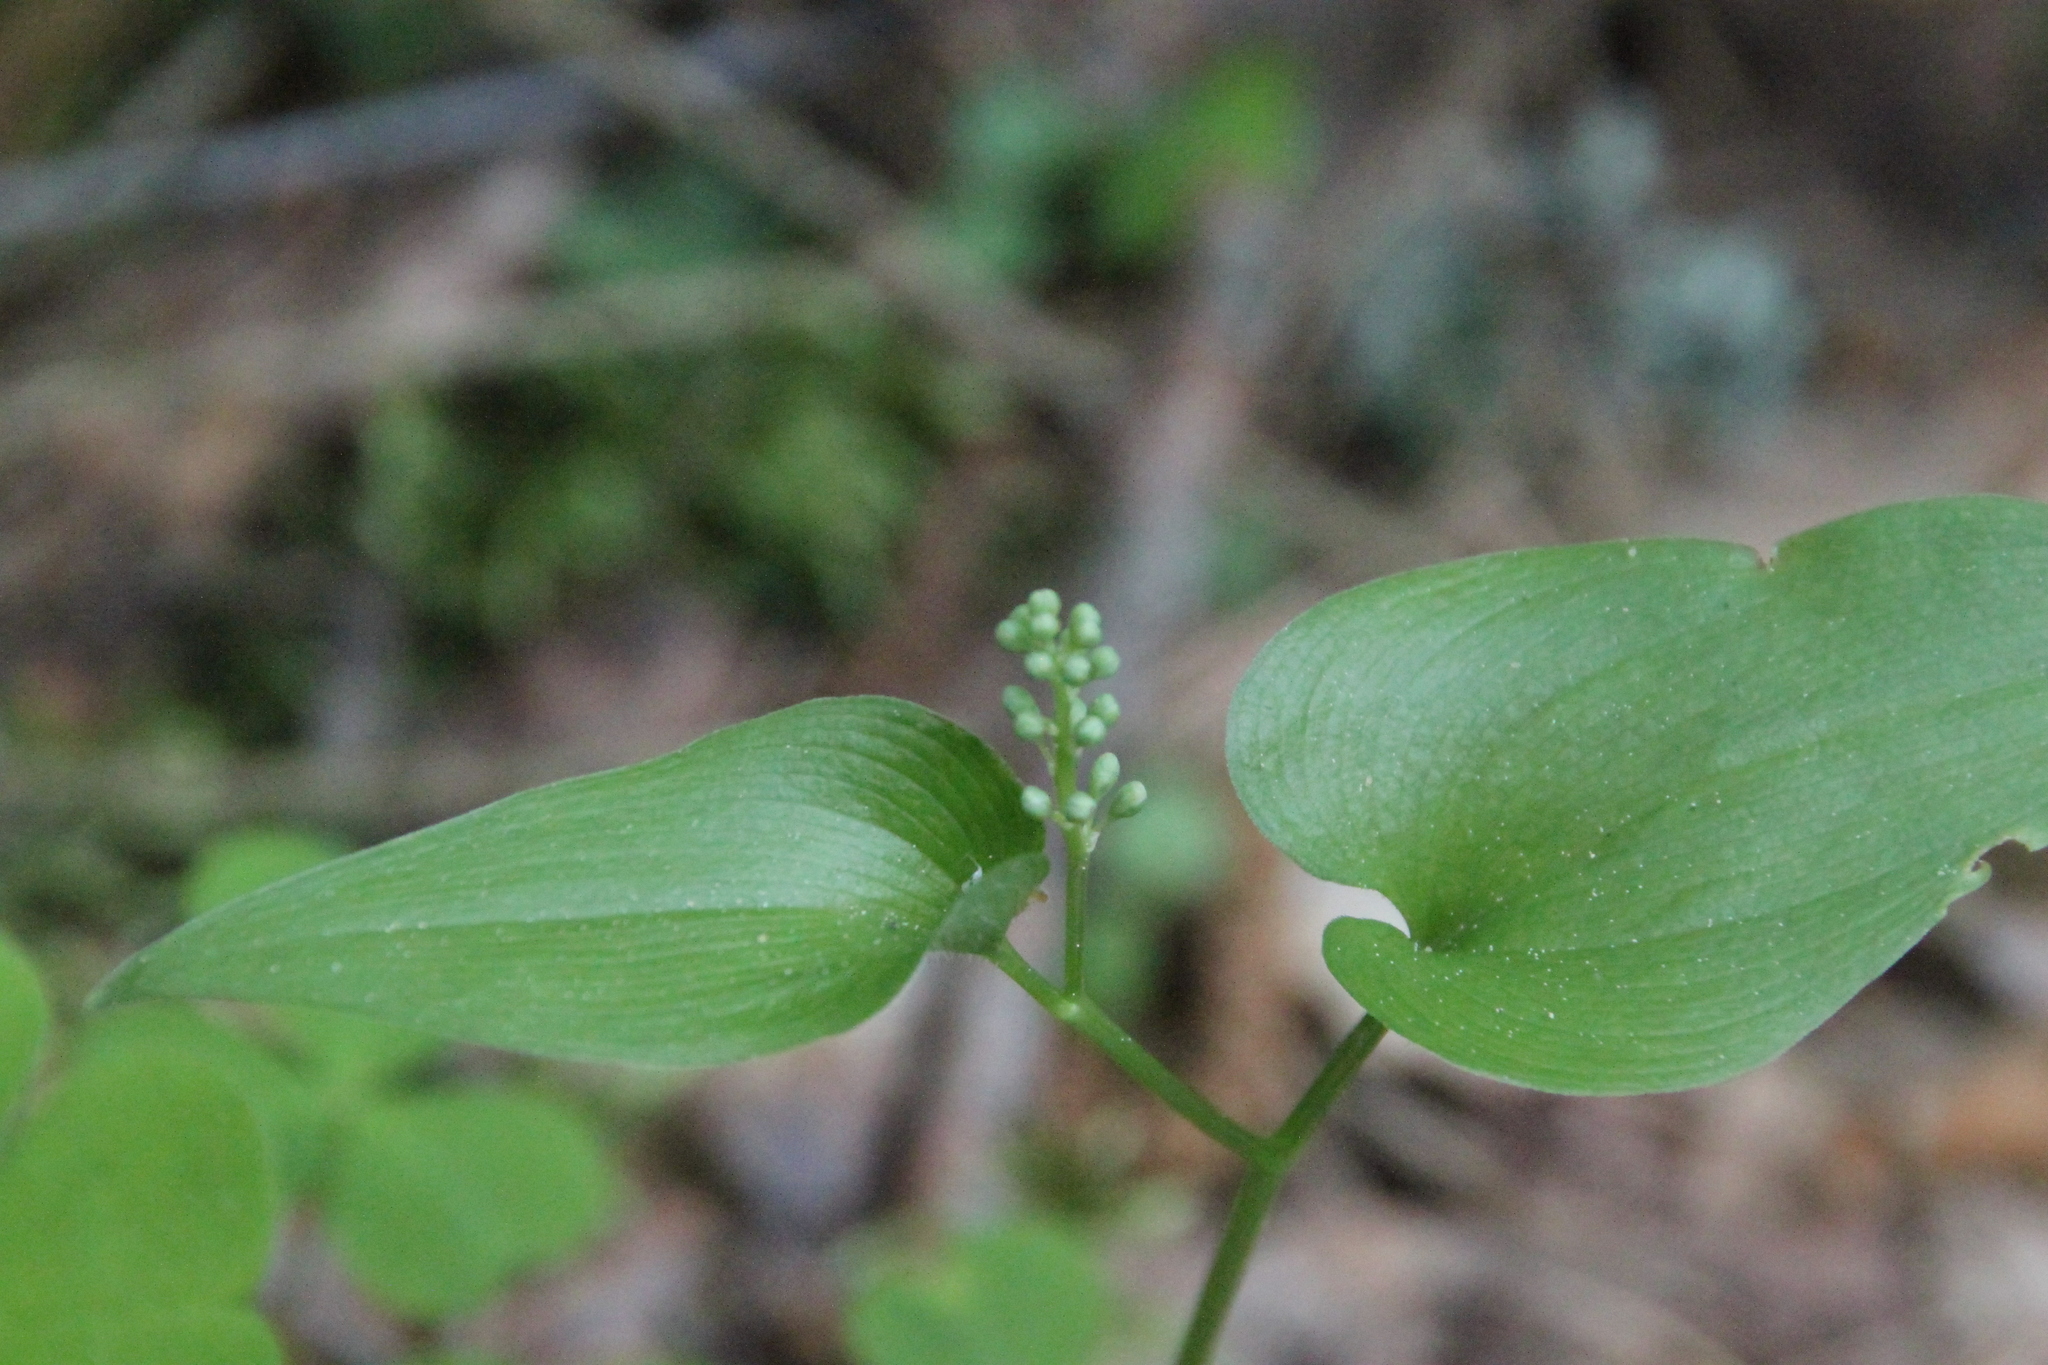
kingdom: Plantae
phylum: Tracheophyta
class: Liliopsida
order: Asparagales
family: Asparagaceae
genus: Maianthemum
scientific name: Maianthemum bifolium
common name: May lily
